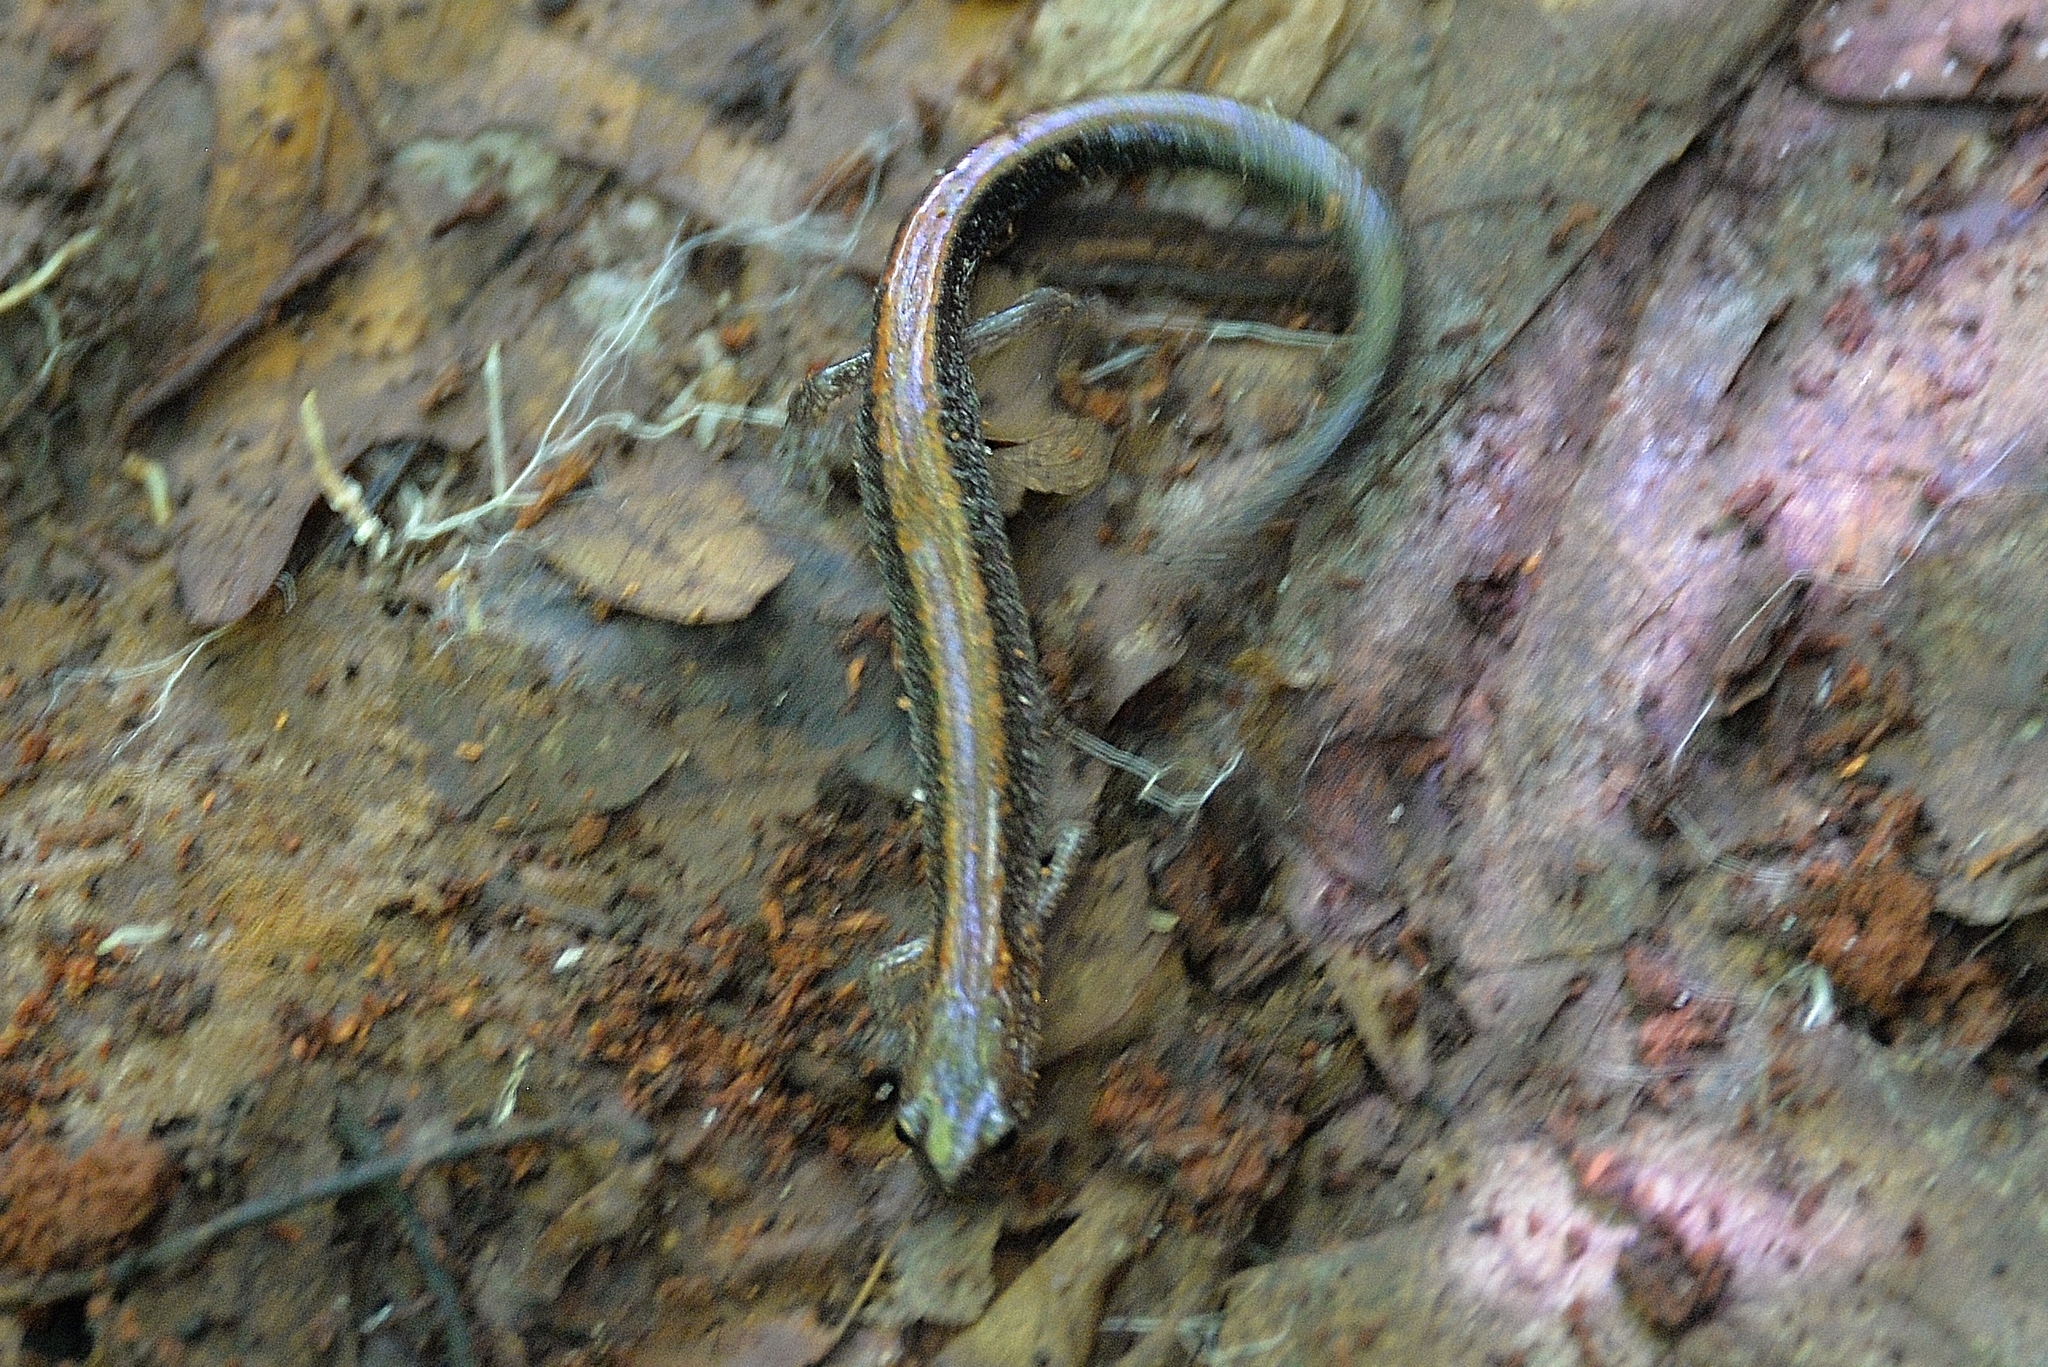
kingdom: Animalia
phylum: Chordata
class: Amphibia
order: Caudata
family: Plethodontidae
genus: Plethodon
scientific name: Plethodon cinereus
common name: Redback salamander
